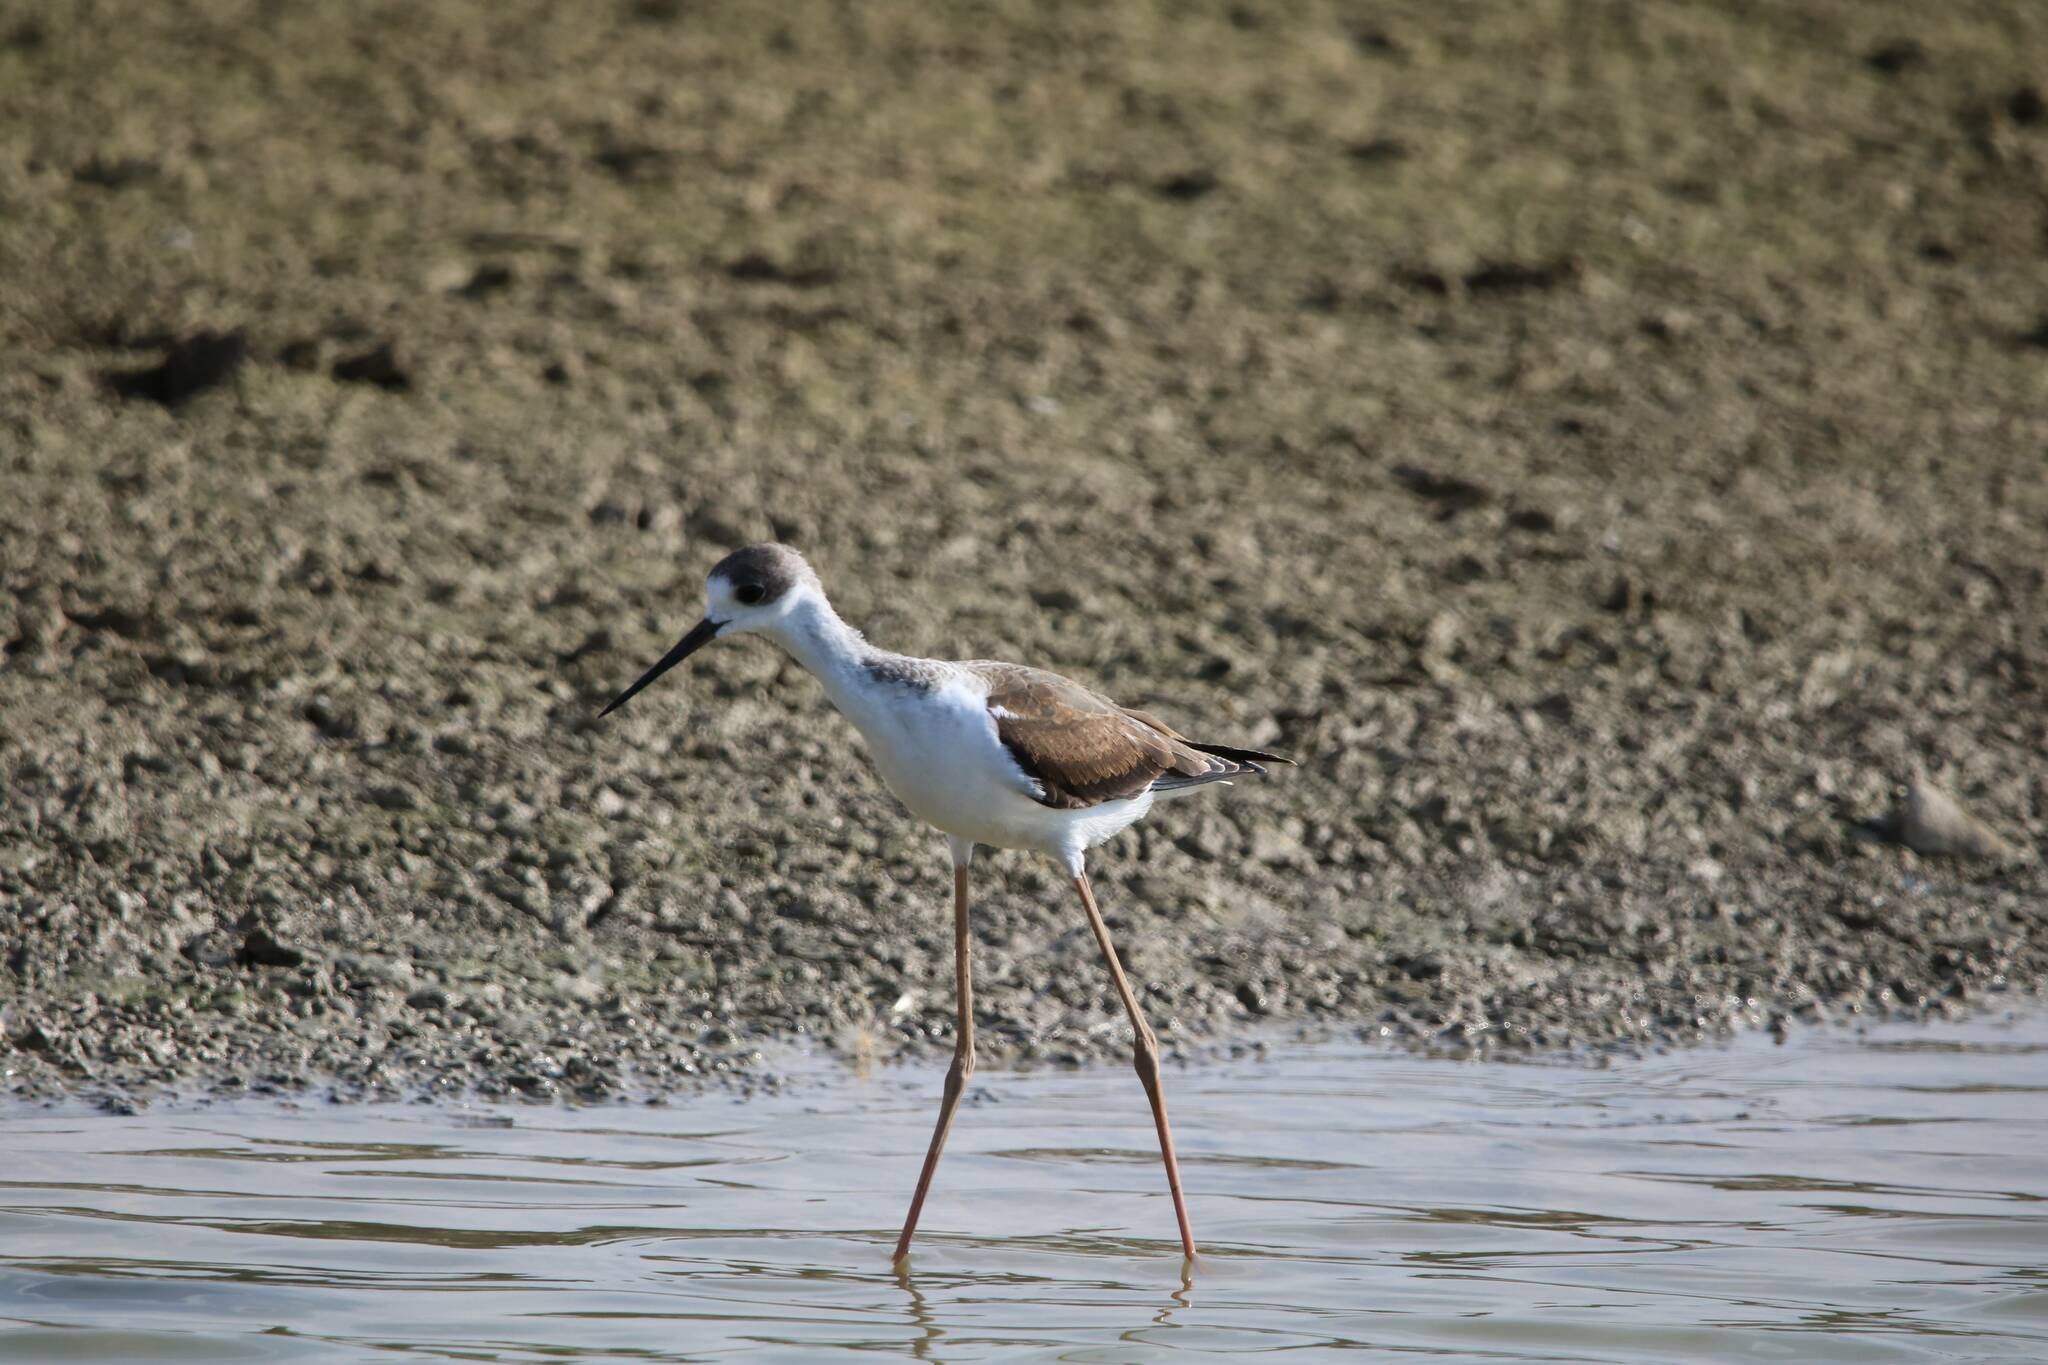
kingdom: Animalia
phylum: Chordata
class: Aves
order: Charadriiformes
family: Recurvirostridae
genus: Himantopus
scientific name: Himantopus himantopus
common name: Black-winged stilt
